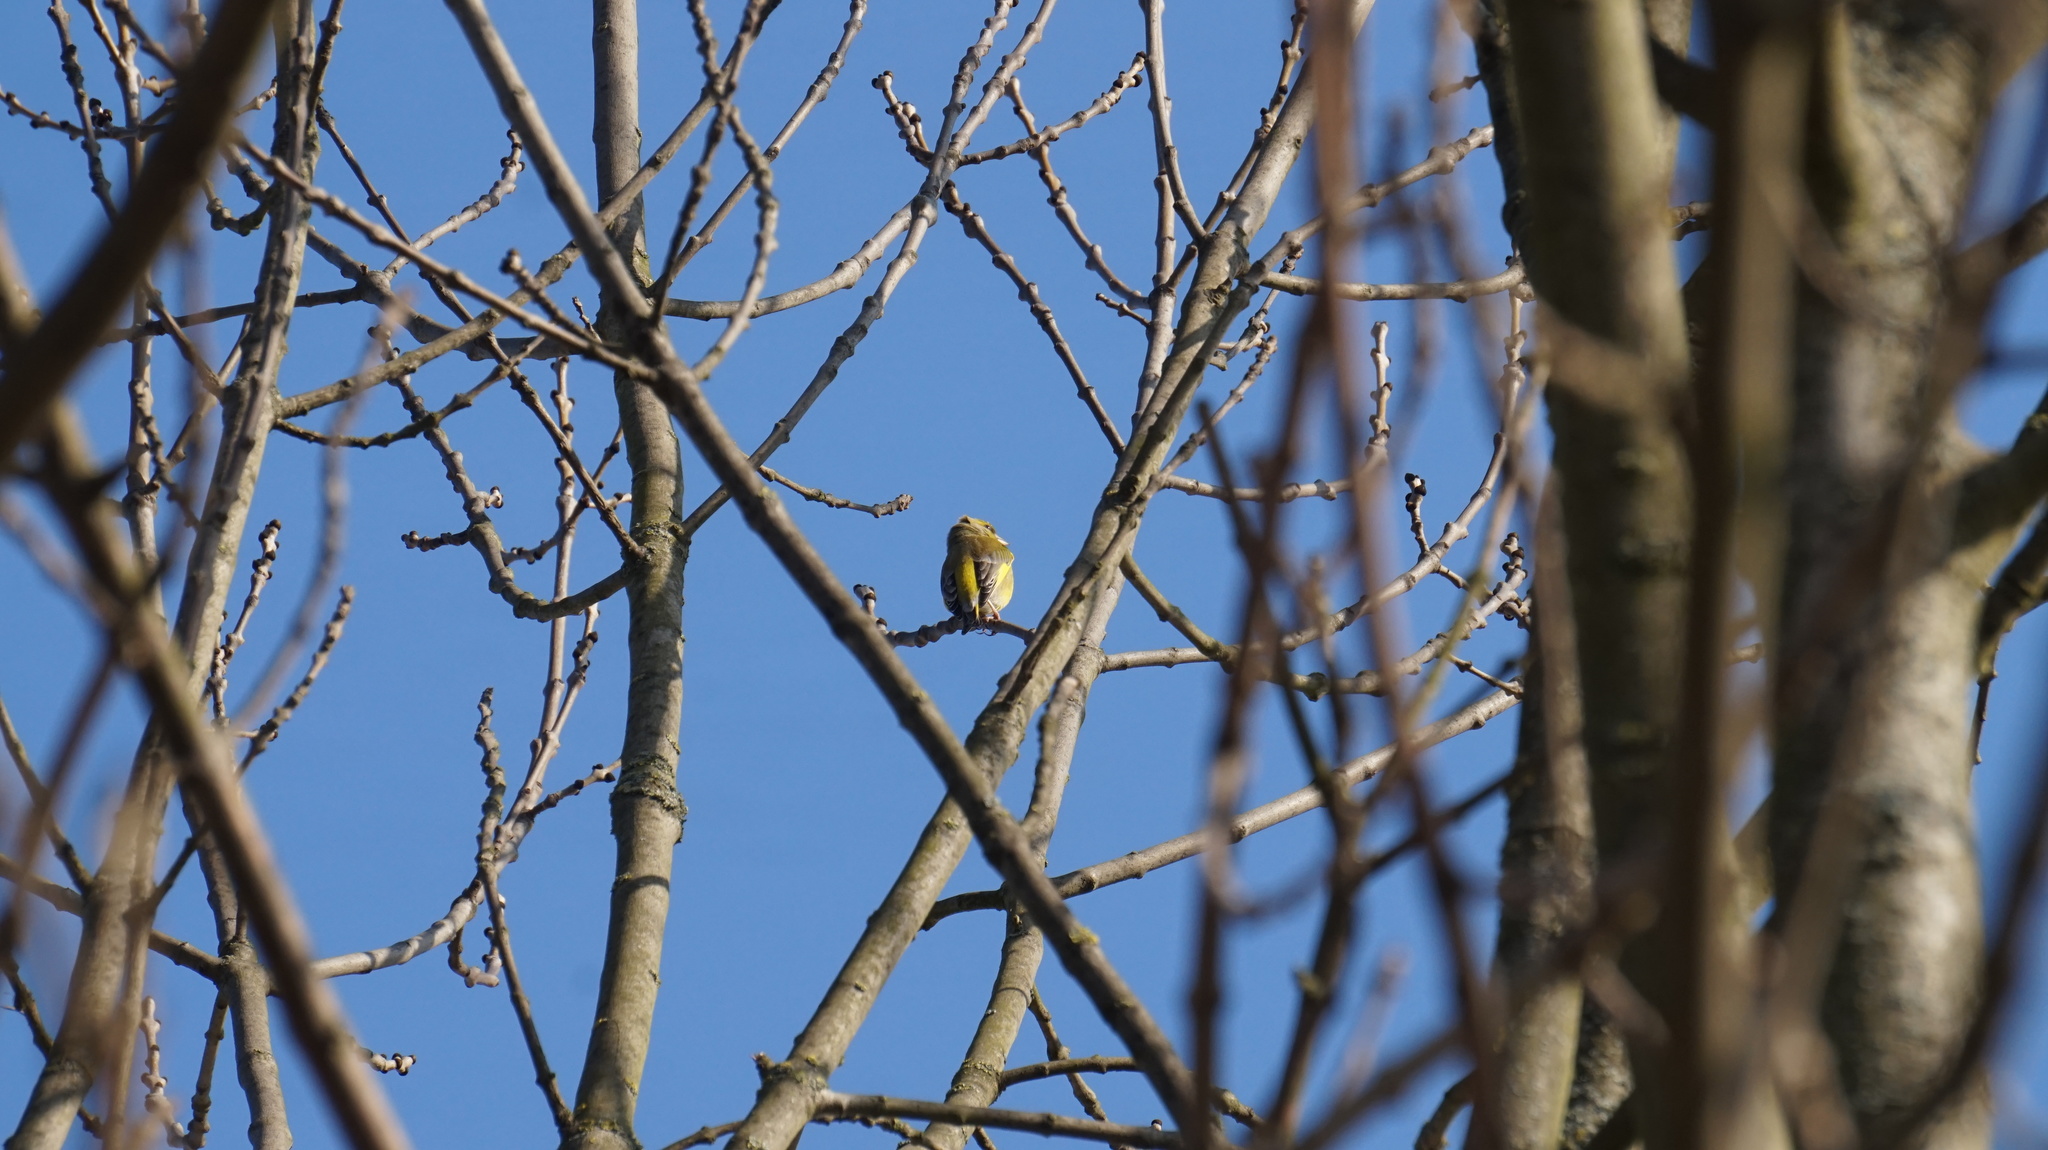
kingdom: Plantae
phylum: Tracheophyta
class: Liliopsida
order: Poales
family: Poaceae
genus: Chloris
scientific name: Chloris chloris
